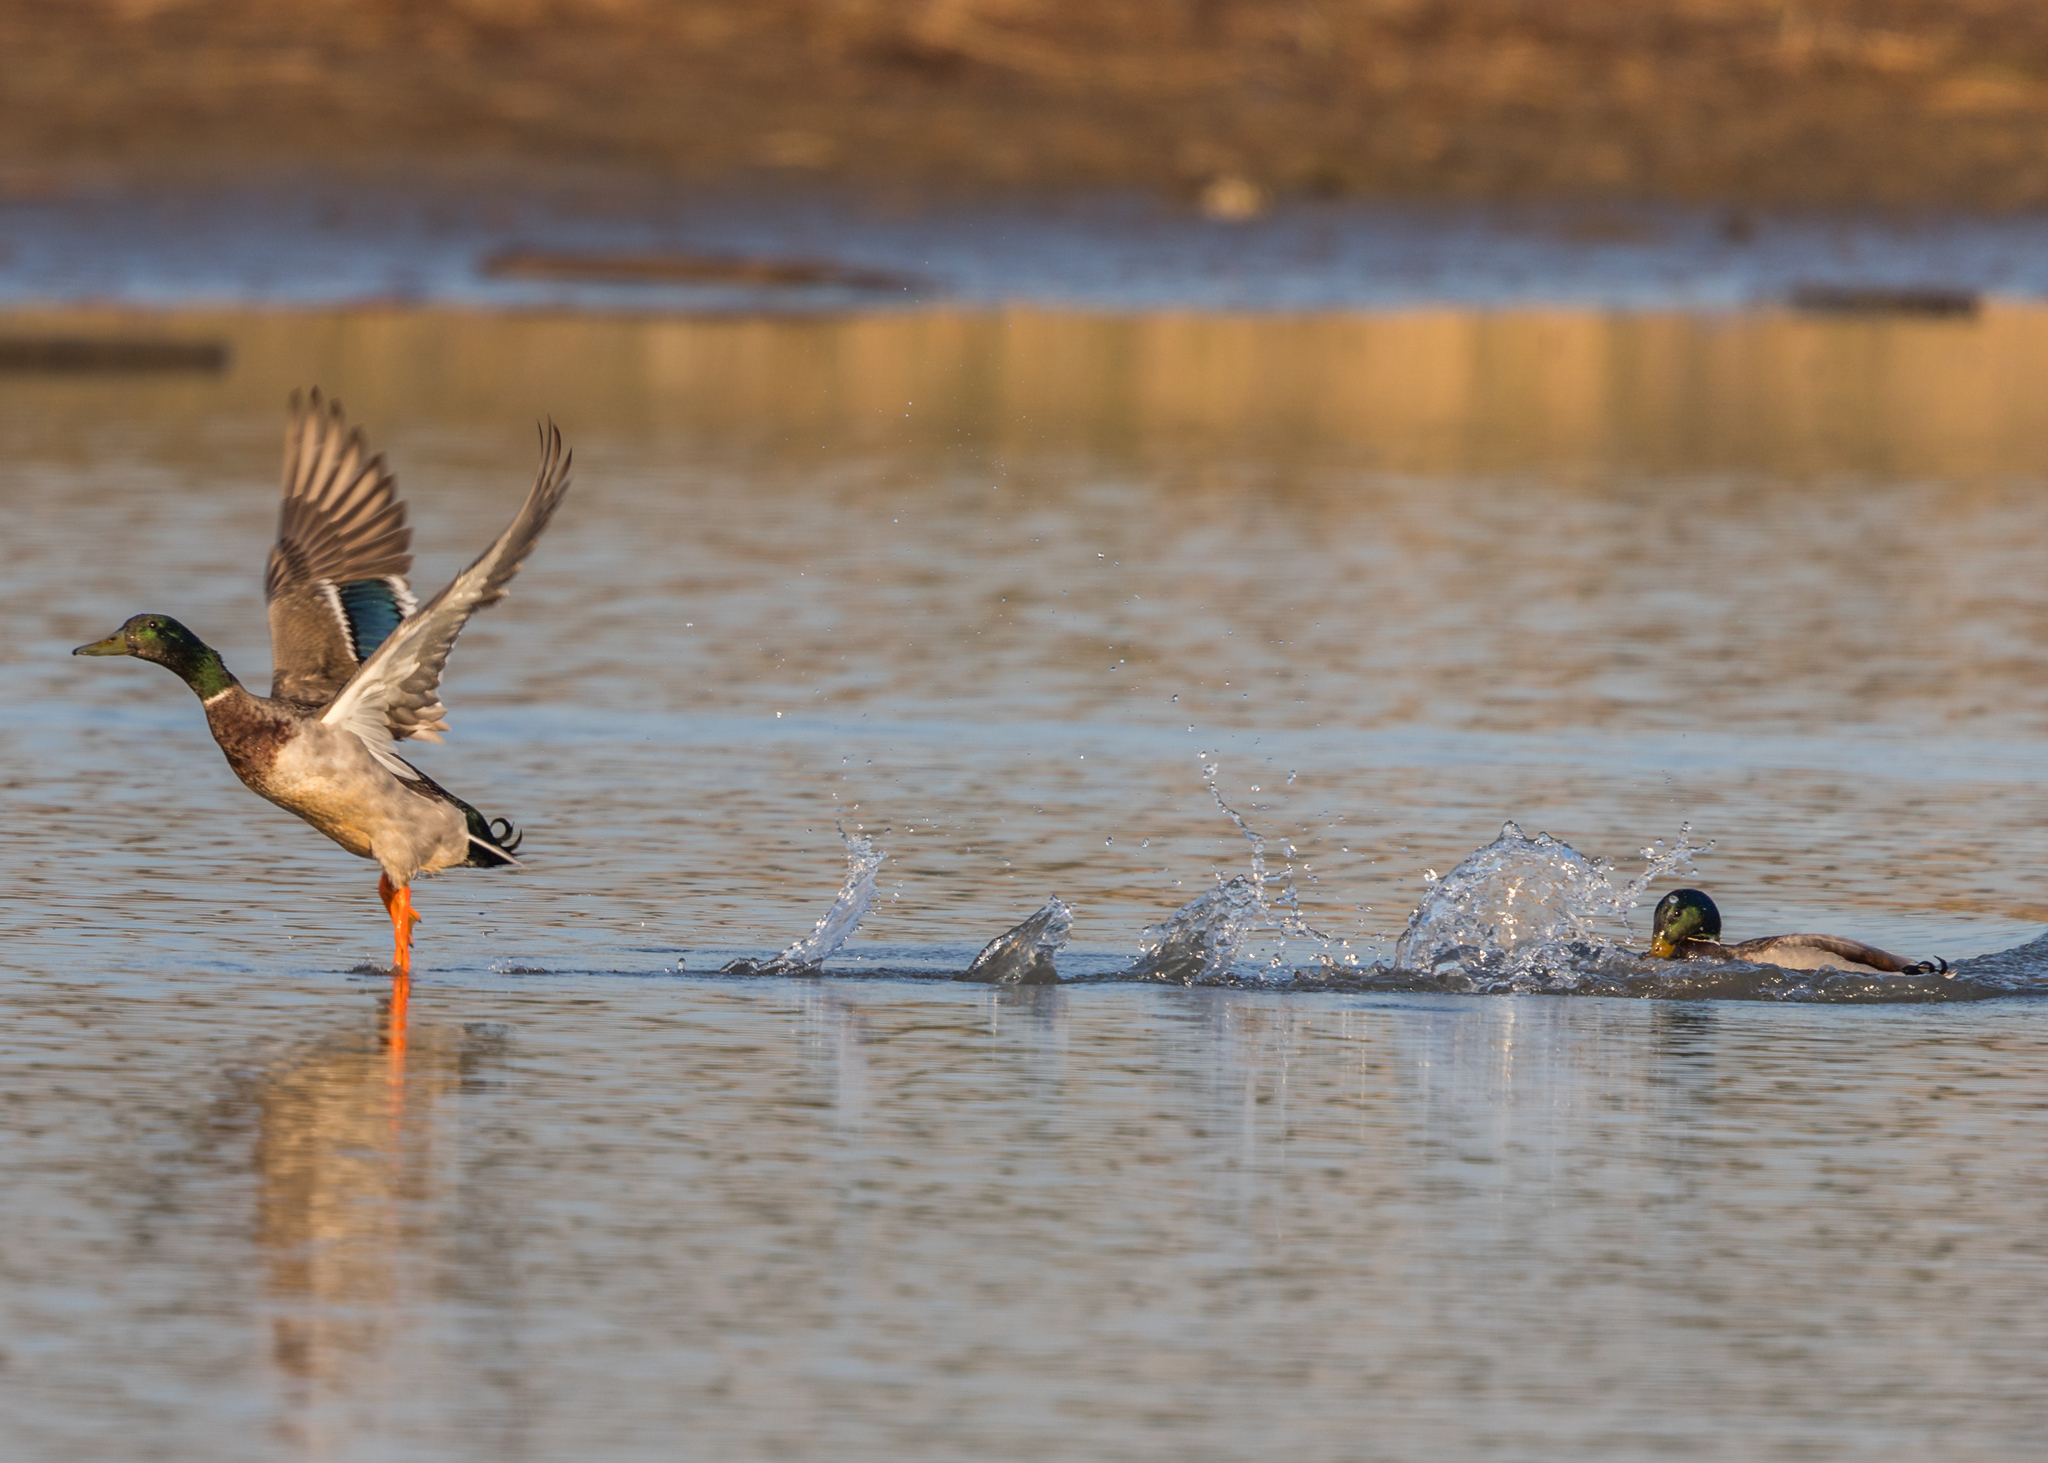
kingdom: Animalia
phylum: Chordata
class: Aves
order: Anseriformes
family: Anatidae
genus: Anas
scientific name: Anas platyrhynchos
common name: Mallard
